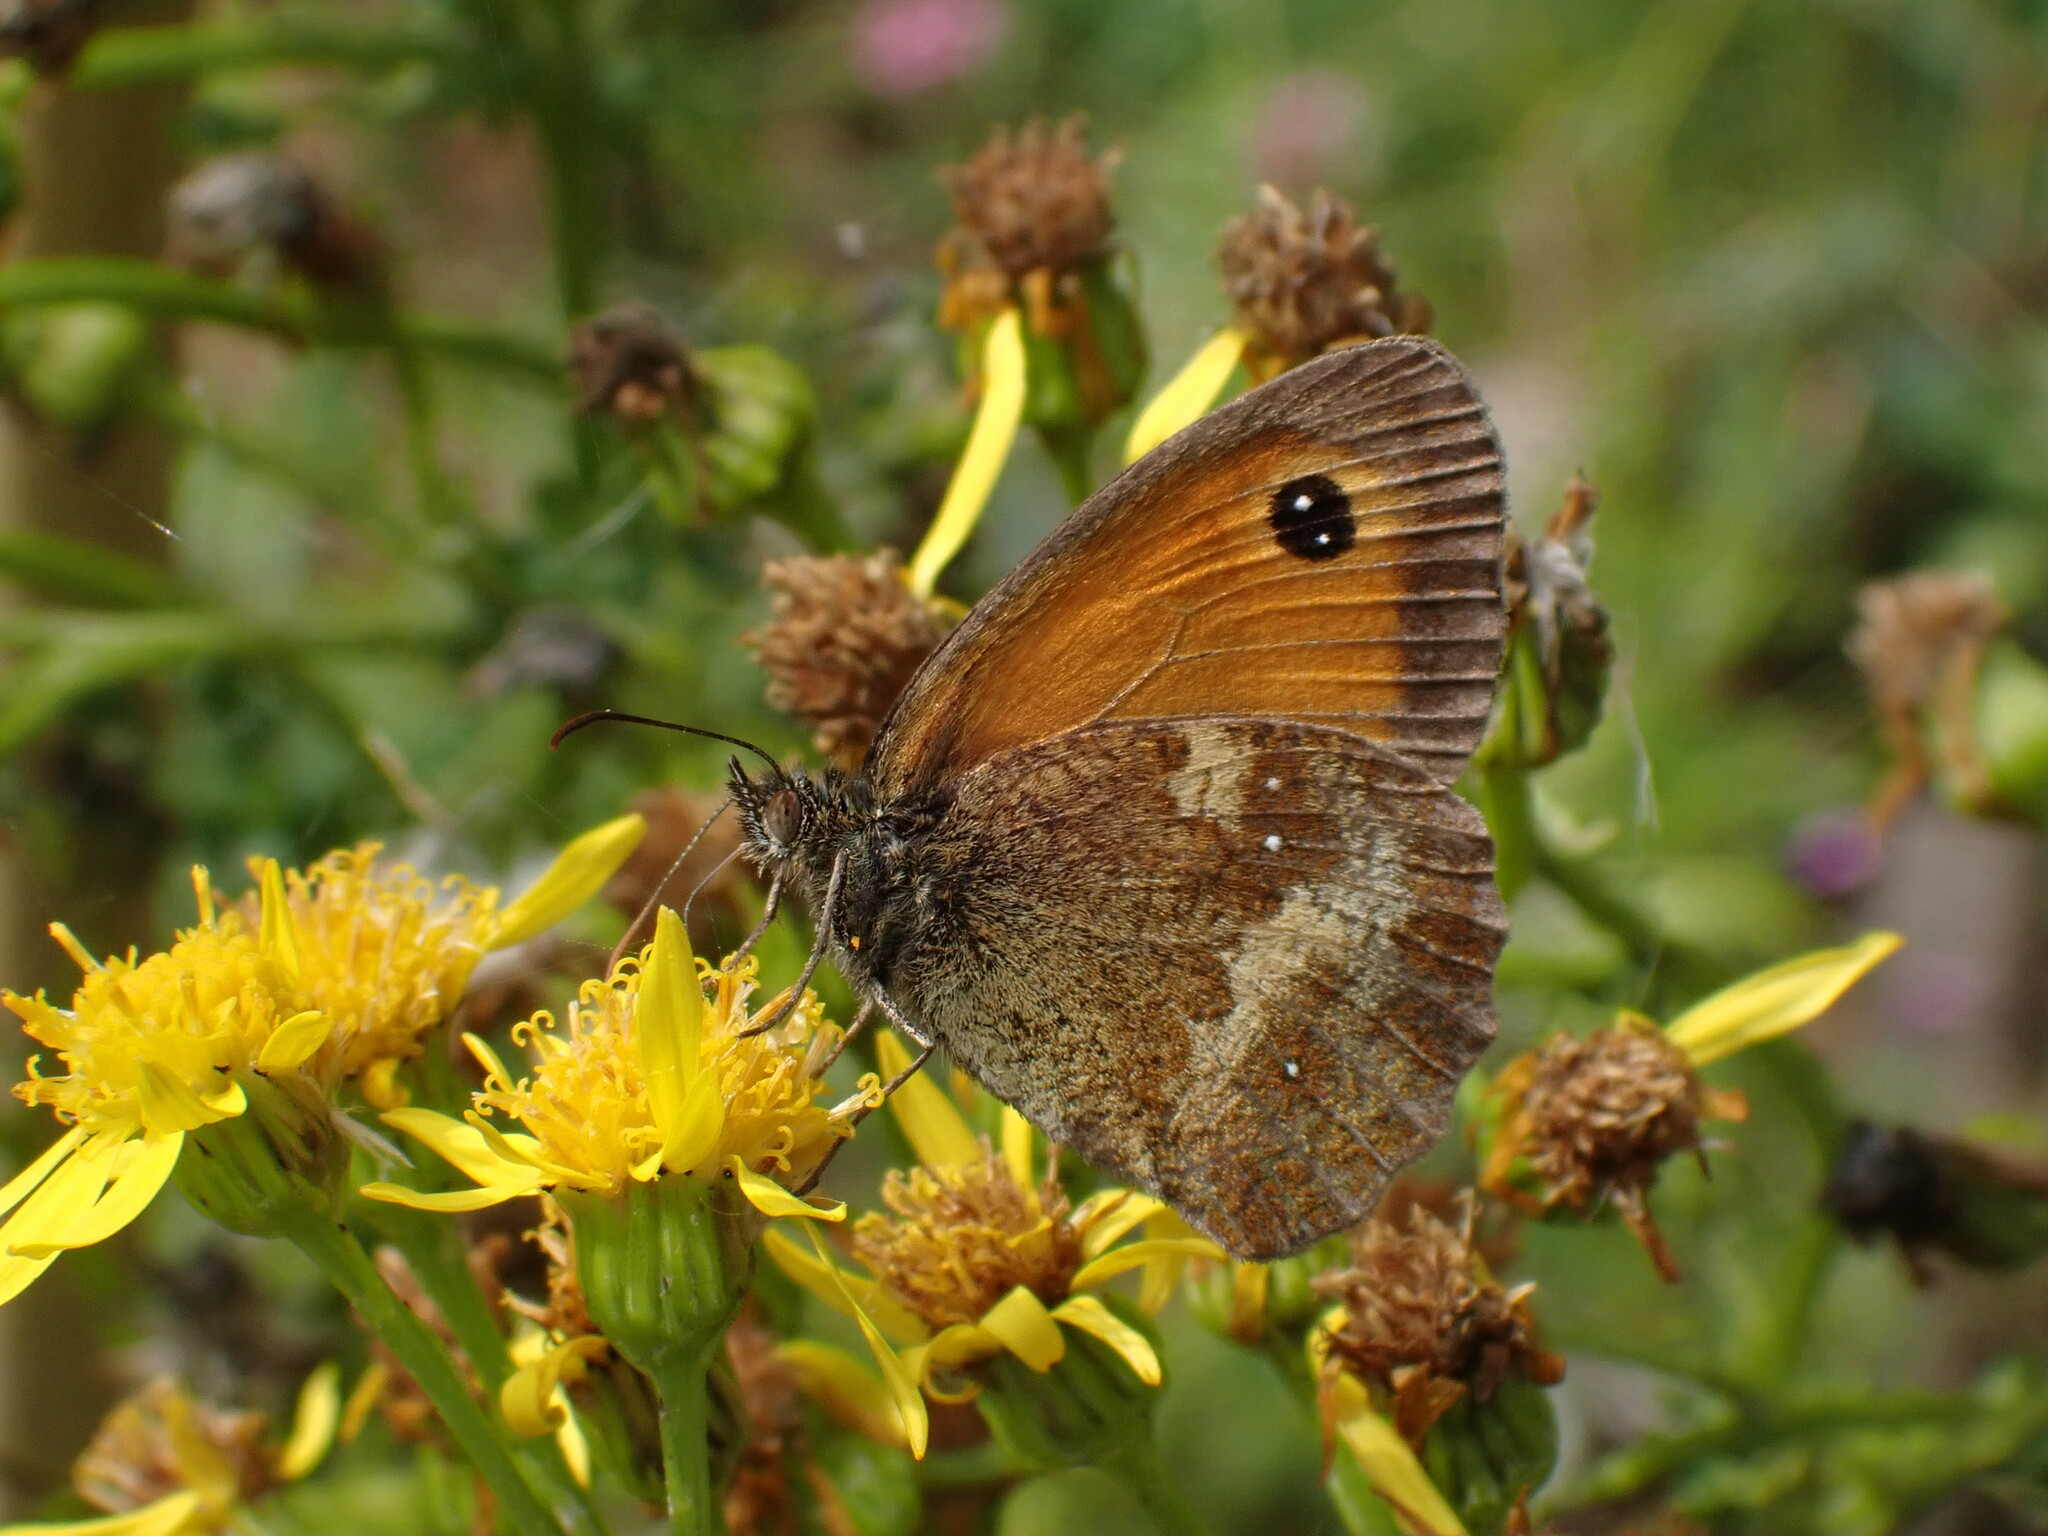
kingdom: Animalia
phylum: Arthropoda
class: Insecta
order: Lepidoptera
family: Nymphalidae
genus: Pyronia
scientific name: Pyronia tithonus
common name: Gatekeeper
